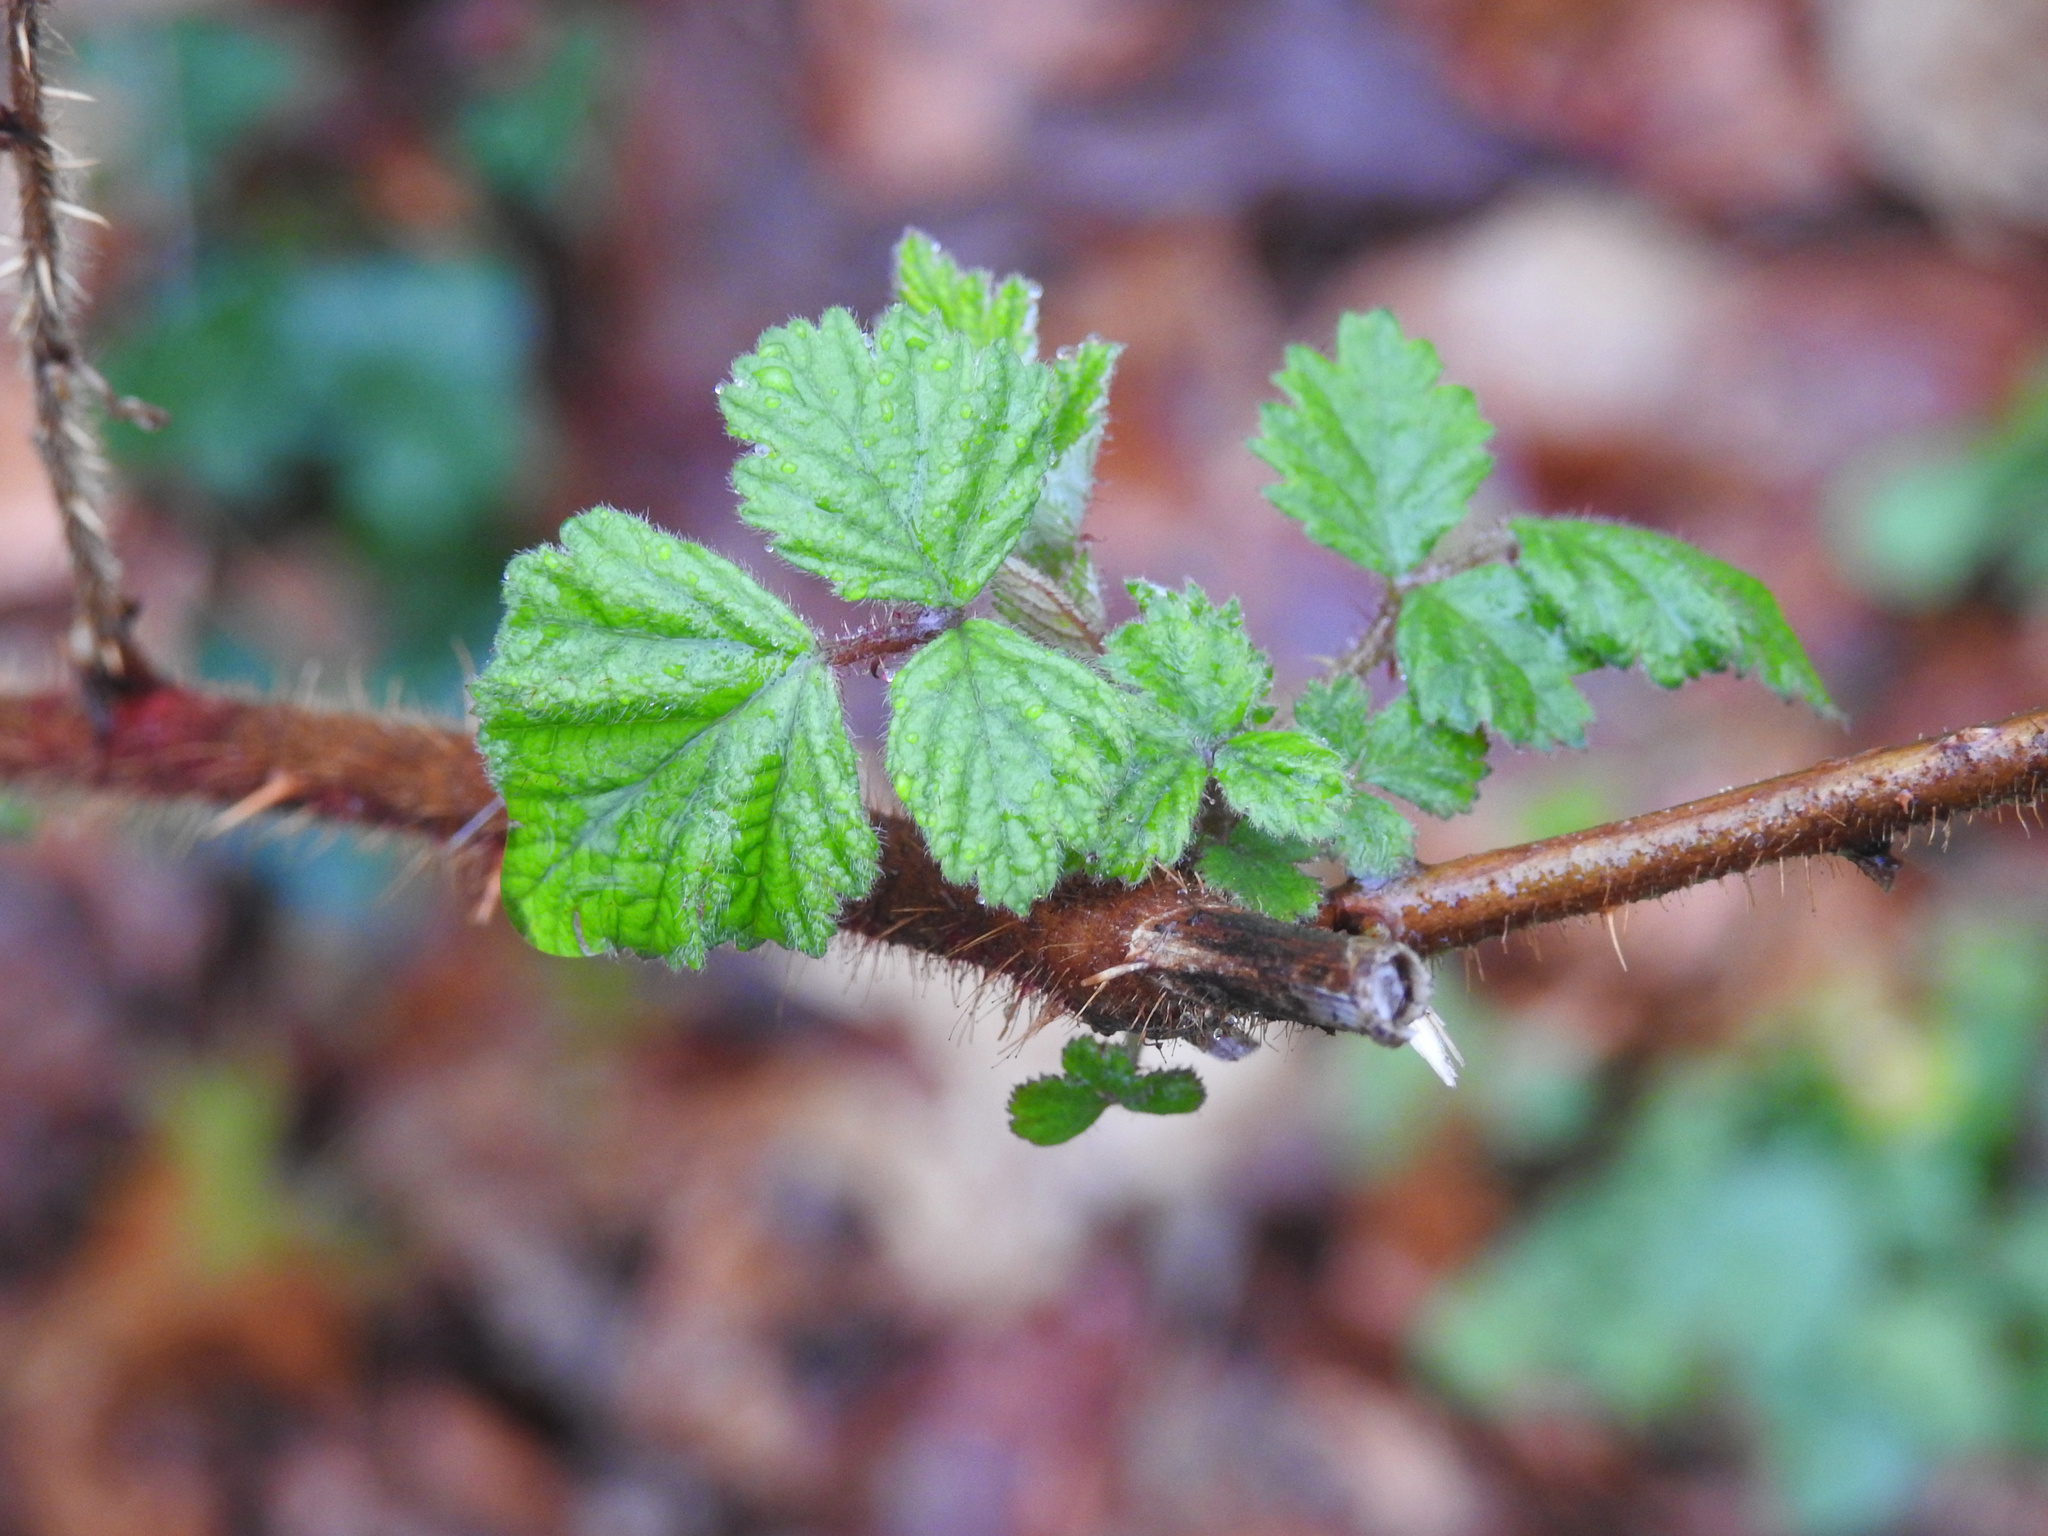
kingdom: Plantae
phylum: Tracheophyta
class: Magnoliopsida
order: Rosales
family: Rosaceae
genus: Rubus
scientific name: Rubus phoenicolasius
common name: Japanese wineberry
